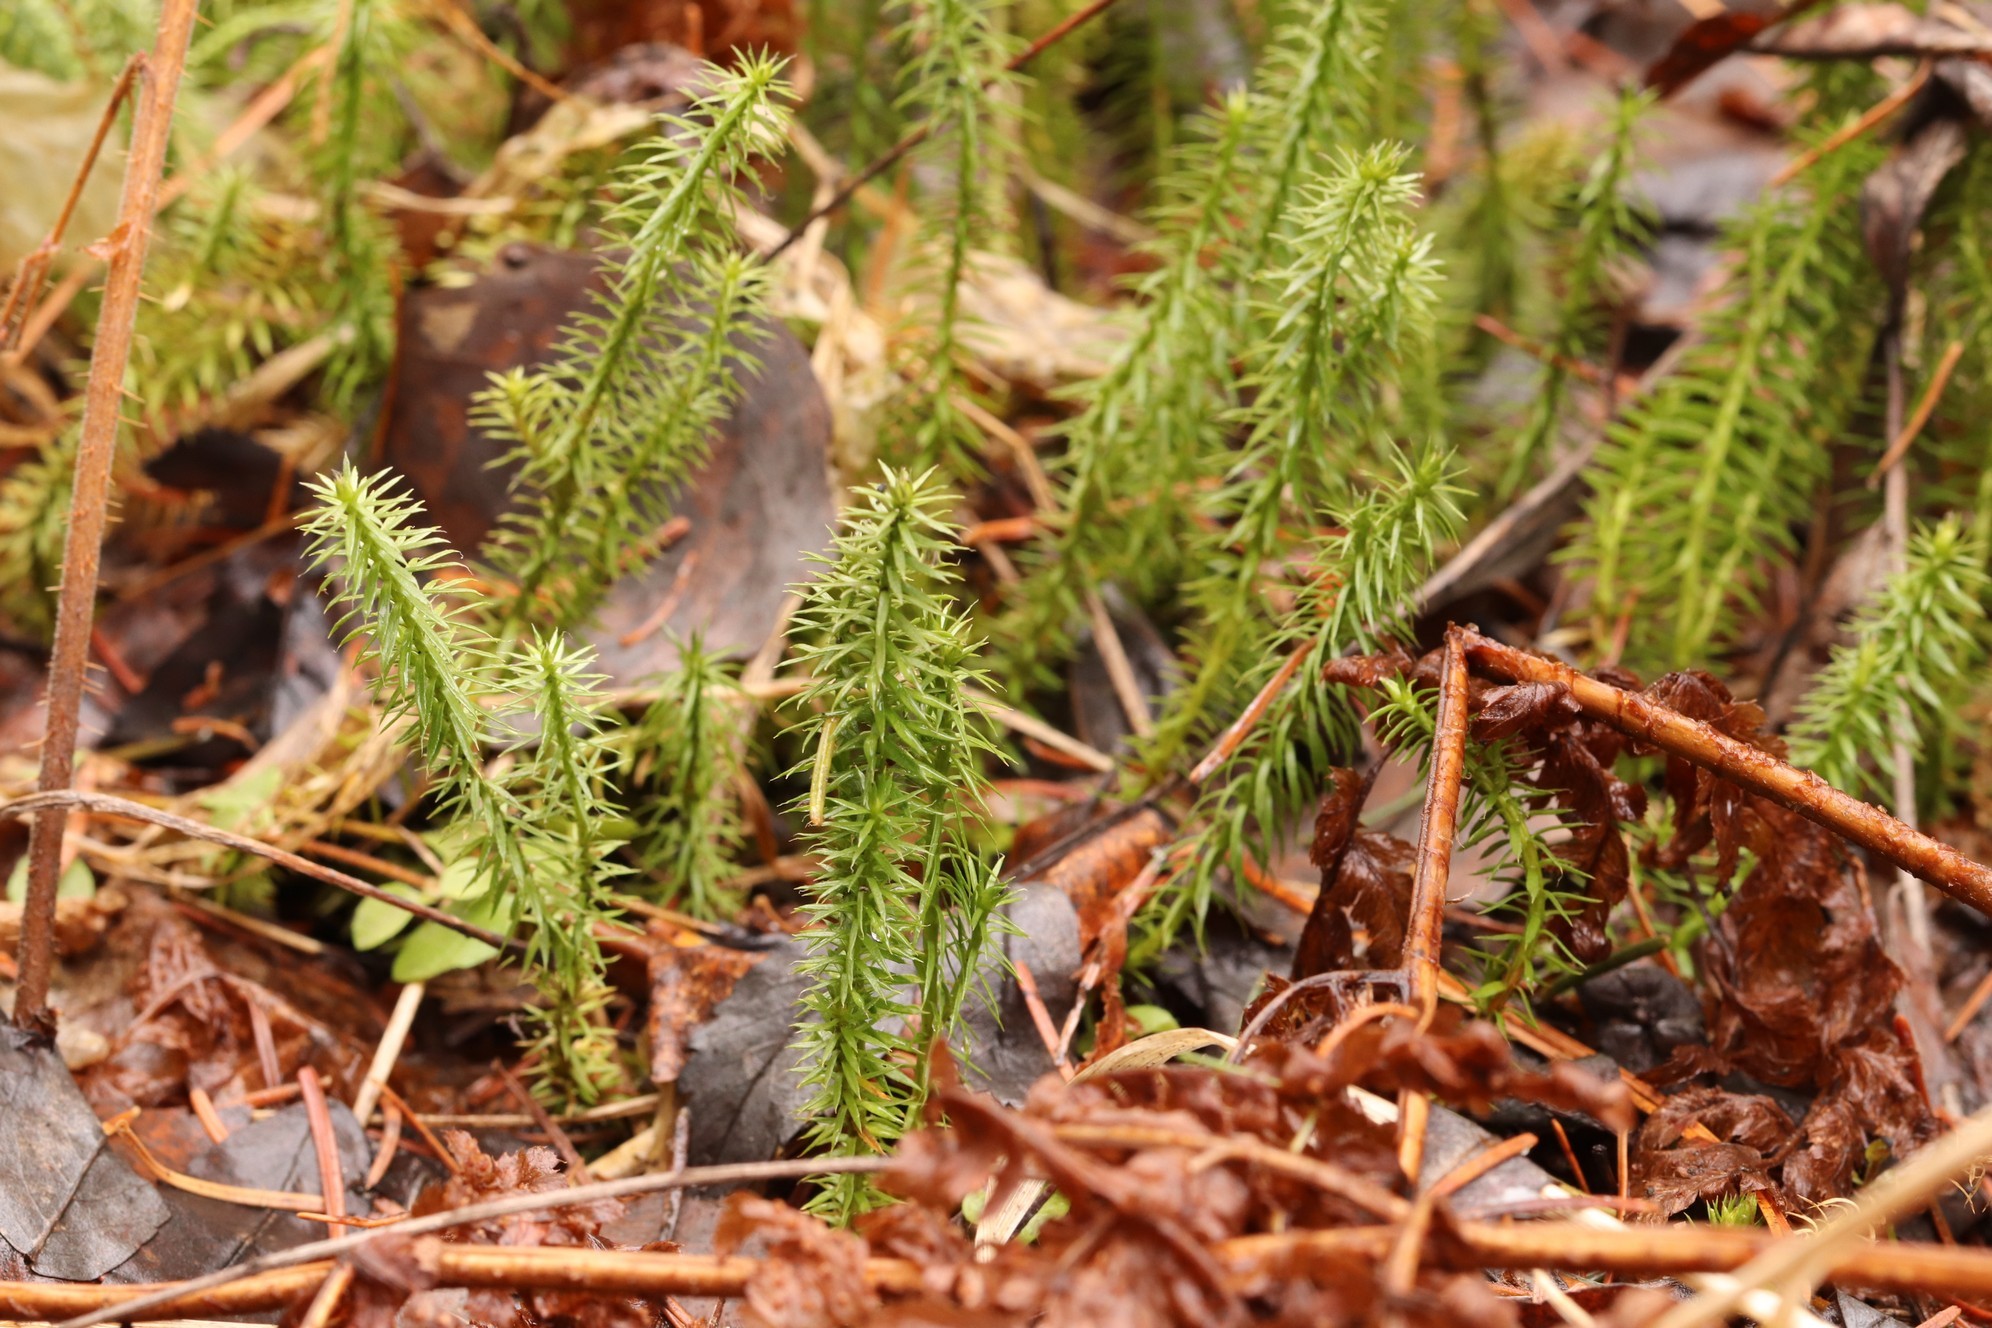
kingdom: Plantae
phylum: Tracheophyta
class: Lycopodiopsida
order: Lycopodiales
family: Lycopodiaceae
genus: Spinulum
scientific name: Spinulum annotinum
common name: Interrupted club-moss
